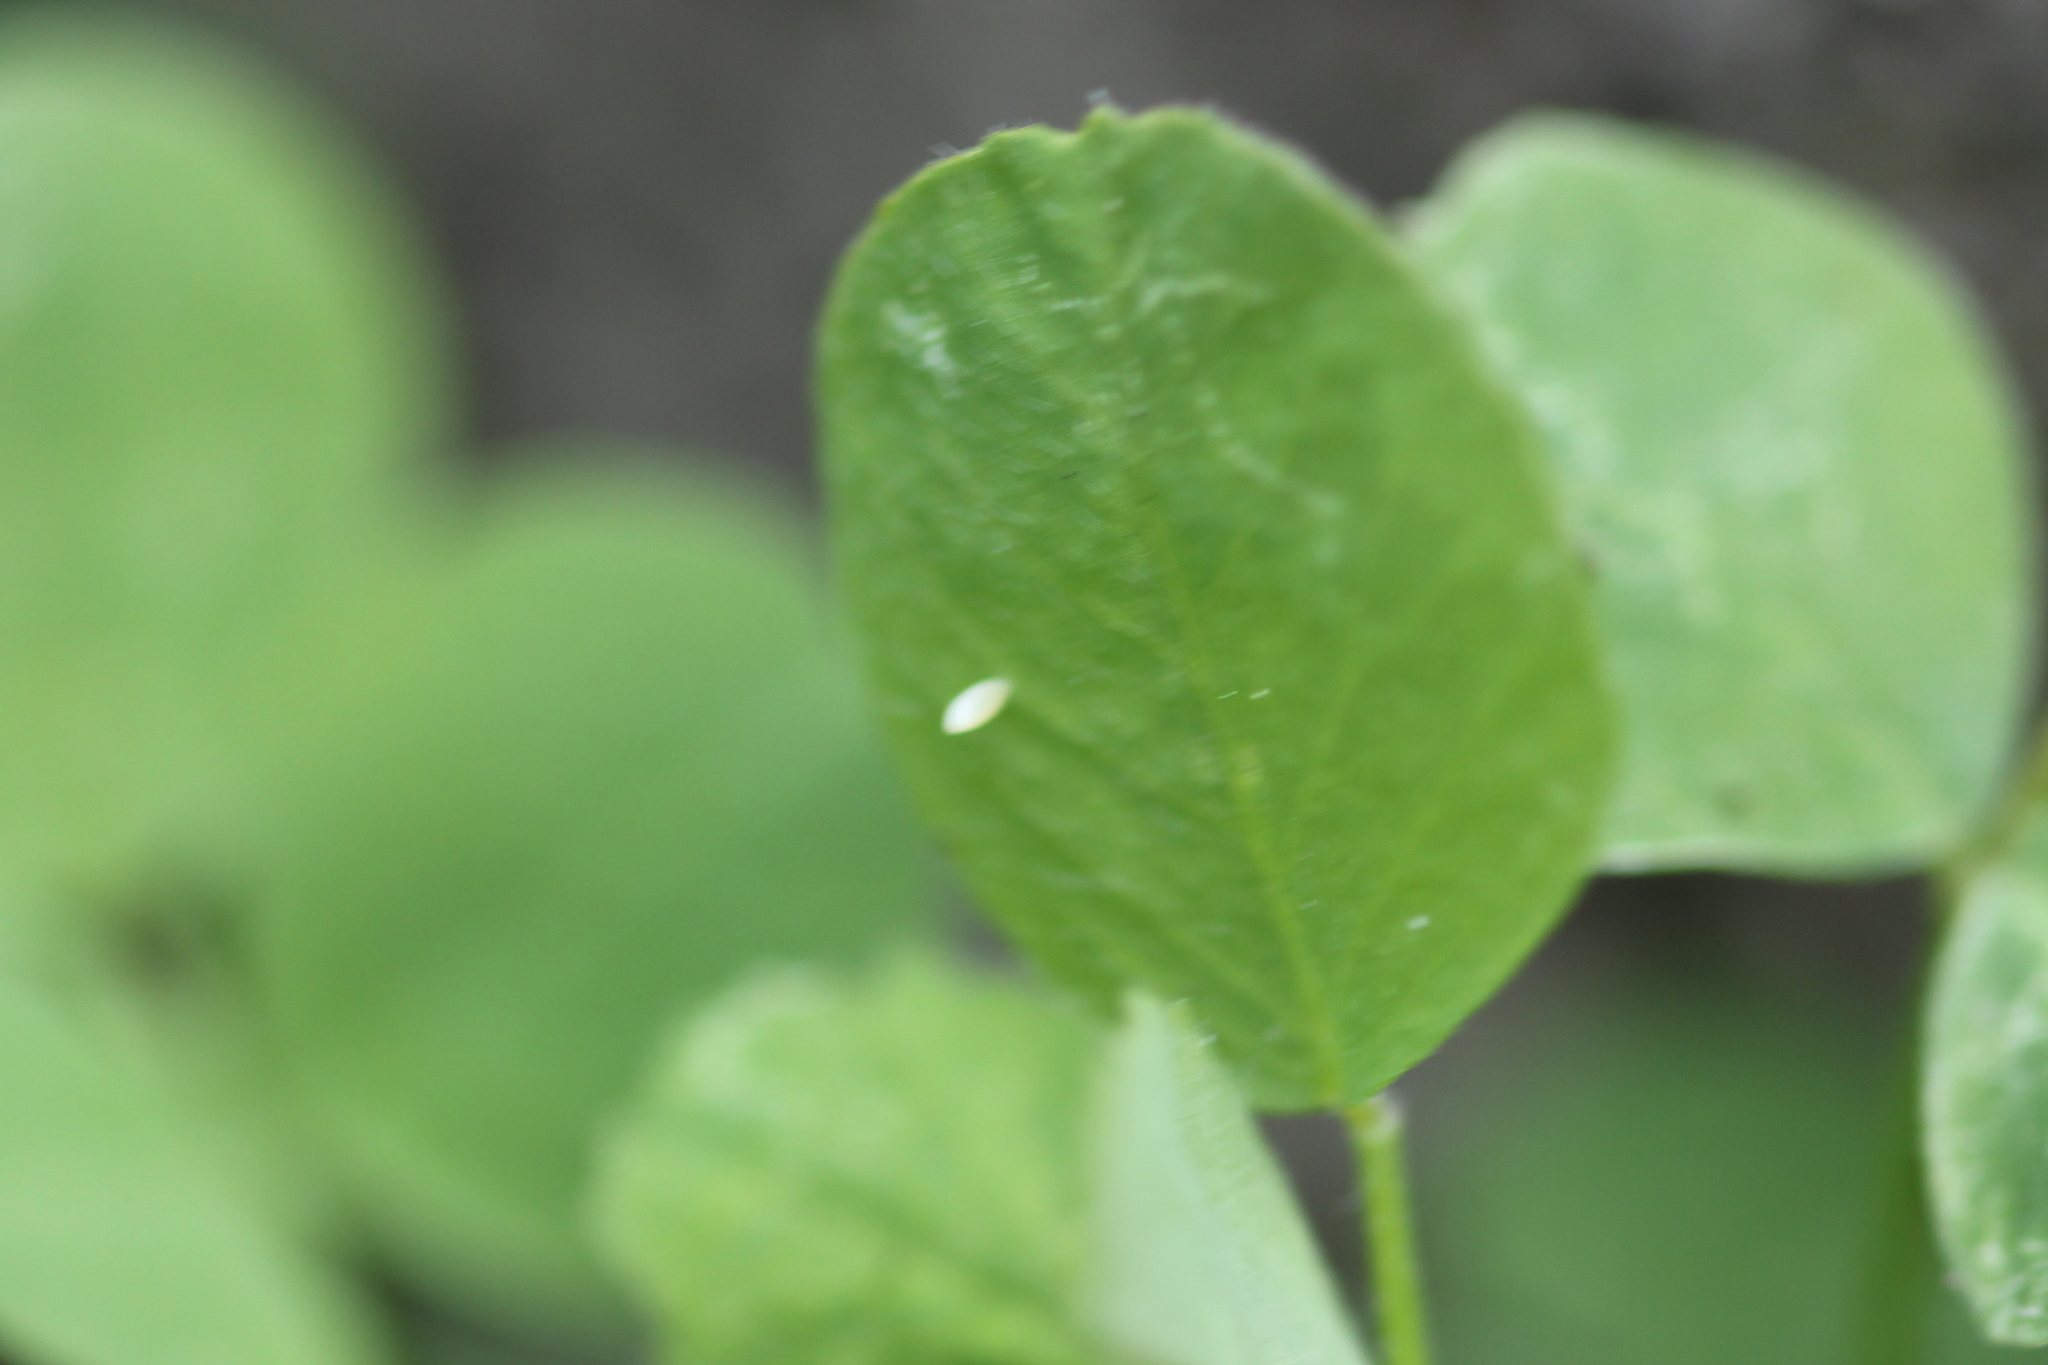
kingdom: Animalia
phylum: Arthropoda
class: Insecta
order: Lepidoptera
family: Pieridae
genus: Colias
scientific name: Colias eurytheme
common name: Alfalfa butterfly
